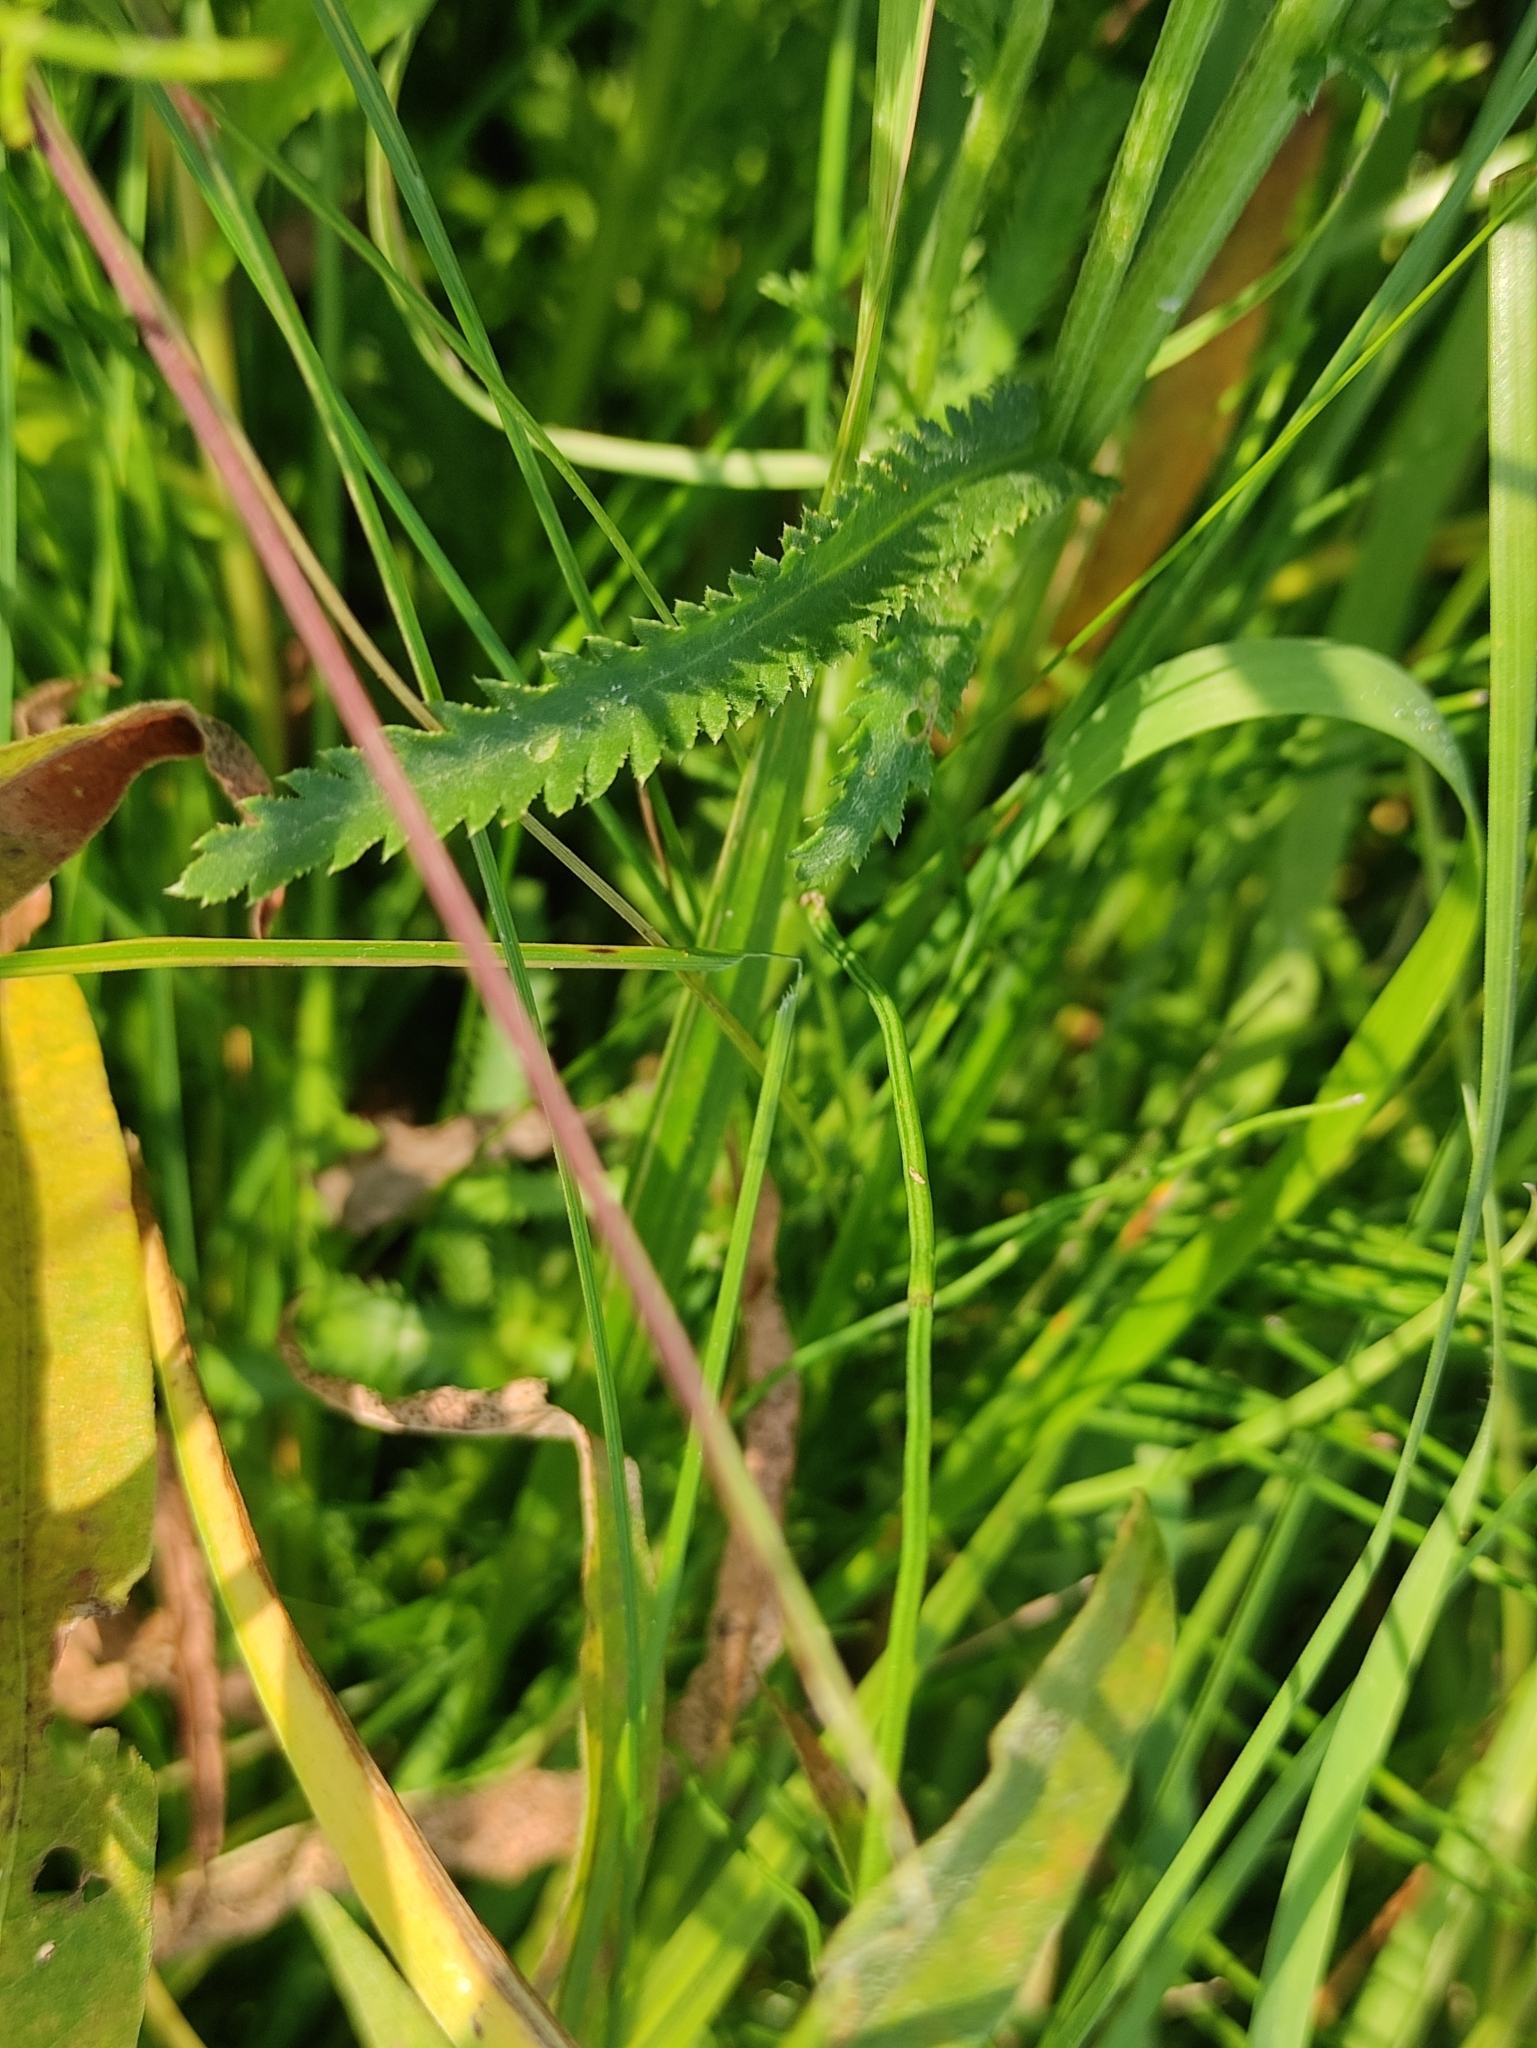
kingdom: Plantae
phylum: Tracheophyta
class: Magnoliopsida
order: Asterales
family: Asteraceae
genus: Achillea
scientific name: Achillea alpina
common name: Siberian yarrow
